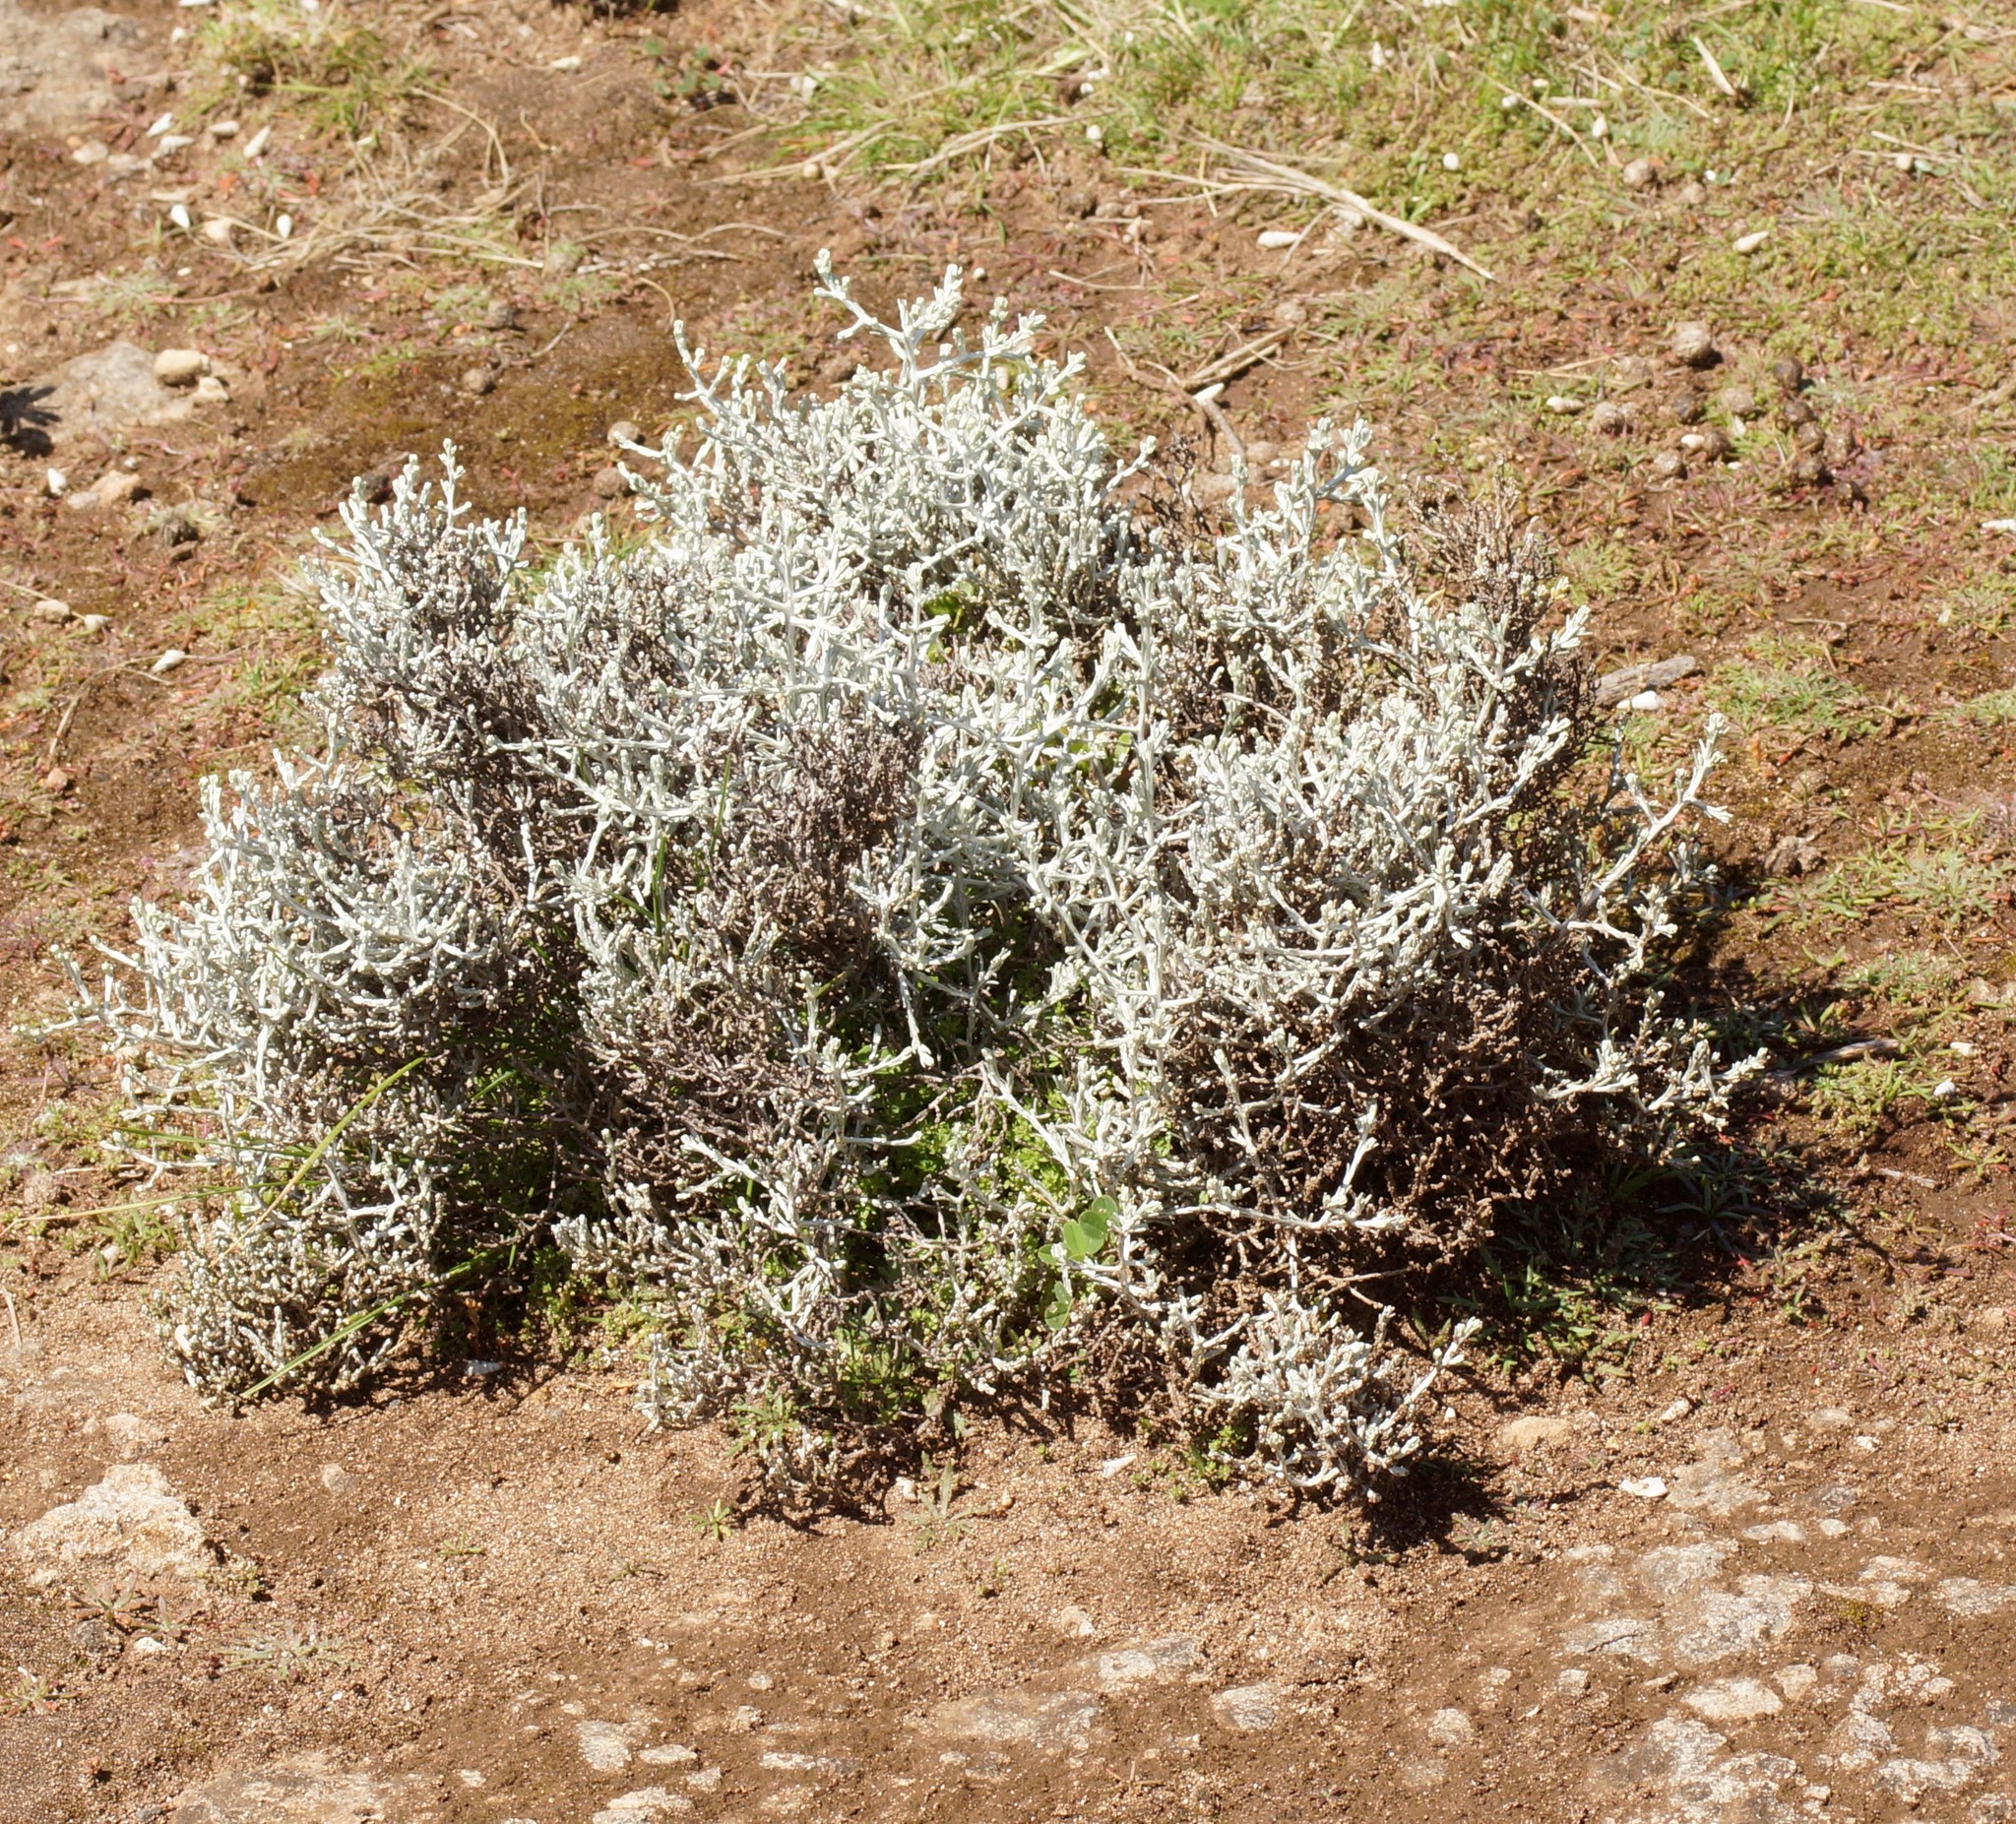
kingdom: Plantae
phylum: Tracheophyta
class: Magnoliopsida
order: Asterales
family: Asteraceae
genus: Calocephalus
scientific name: Calocephalus brownii
